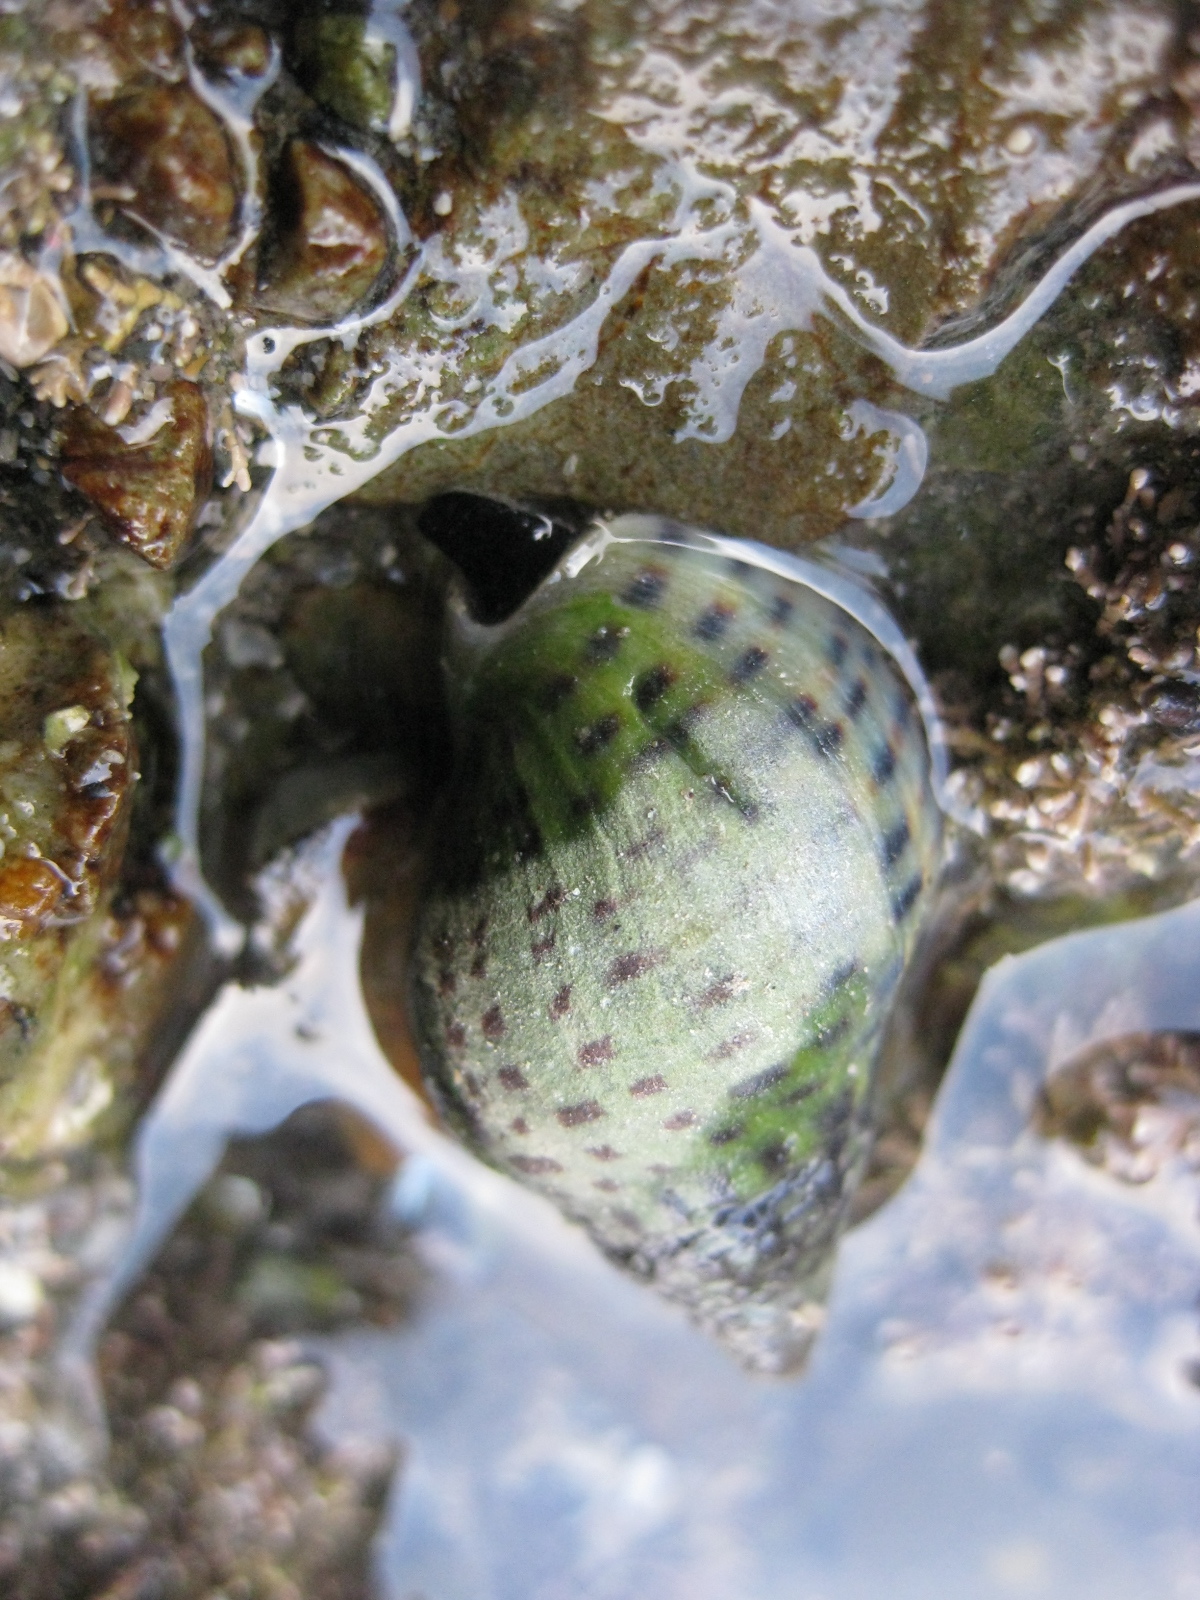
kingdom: Animalia
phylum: Mollusca
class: Gastropoda
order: Neogastropoda
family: Cominellidae
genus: Cominella
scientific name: Cominella maculosa
